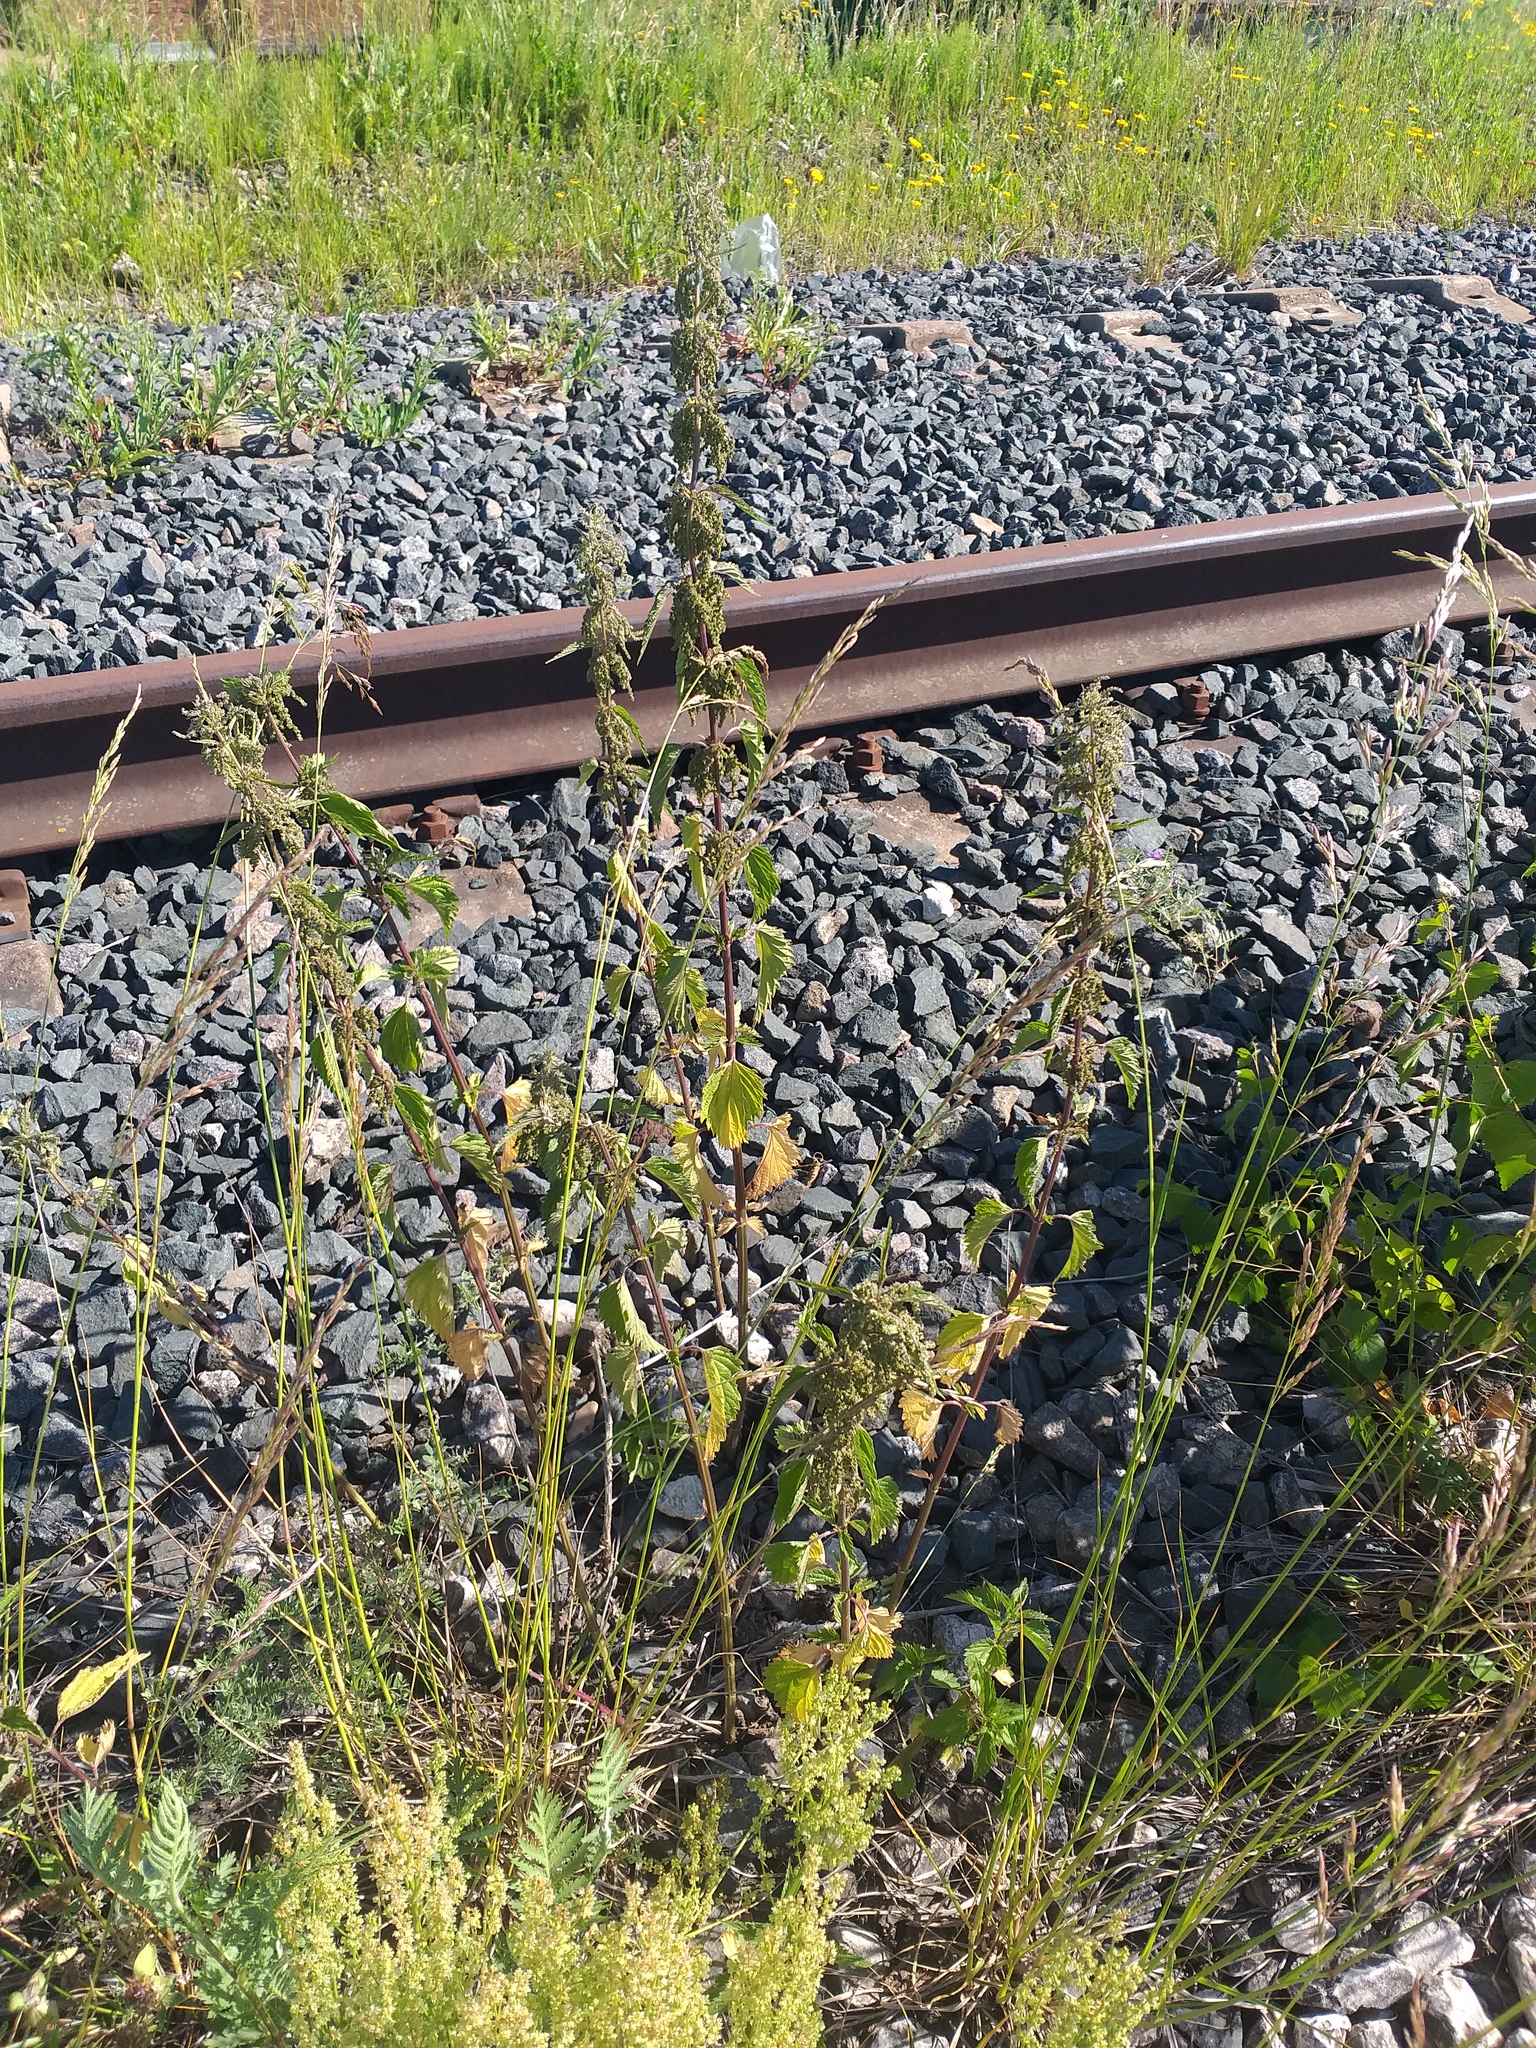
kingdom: Plantae
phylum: Tracheophyta
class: Magnoliopsida
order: Rosales
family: Urticaceae
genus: Urtica
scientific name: Urtica dioica
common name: Common nettle
